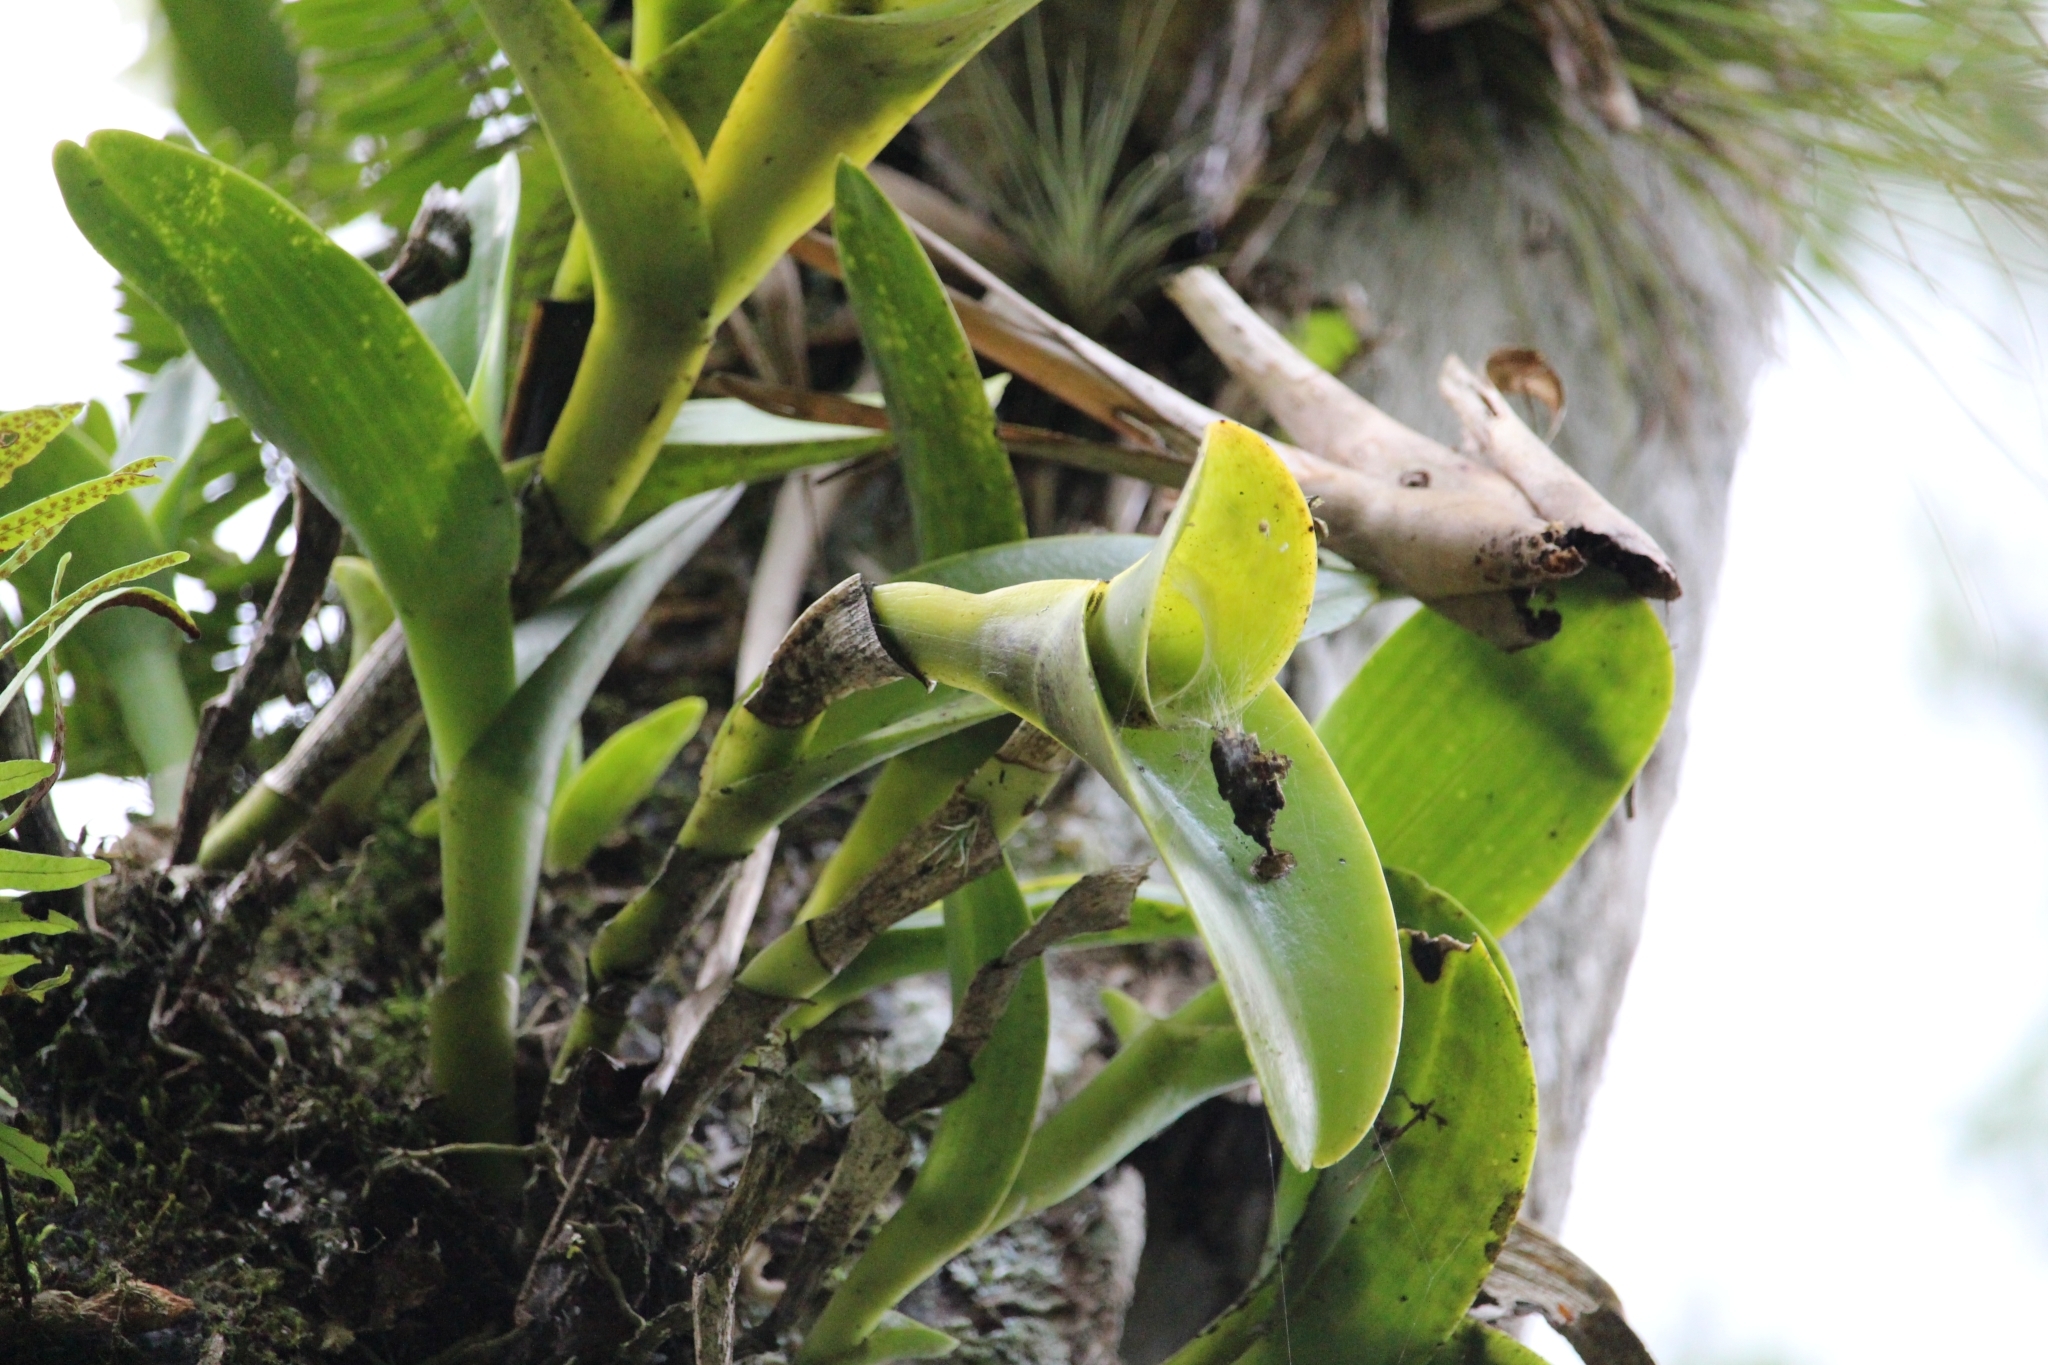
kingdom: Plantae
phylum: Tracheophyta
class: Liliopsida
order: Asparagales
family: Orchidaceae
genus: Epidendrum
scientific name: Epidendrum barbeyanum
